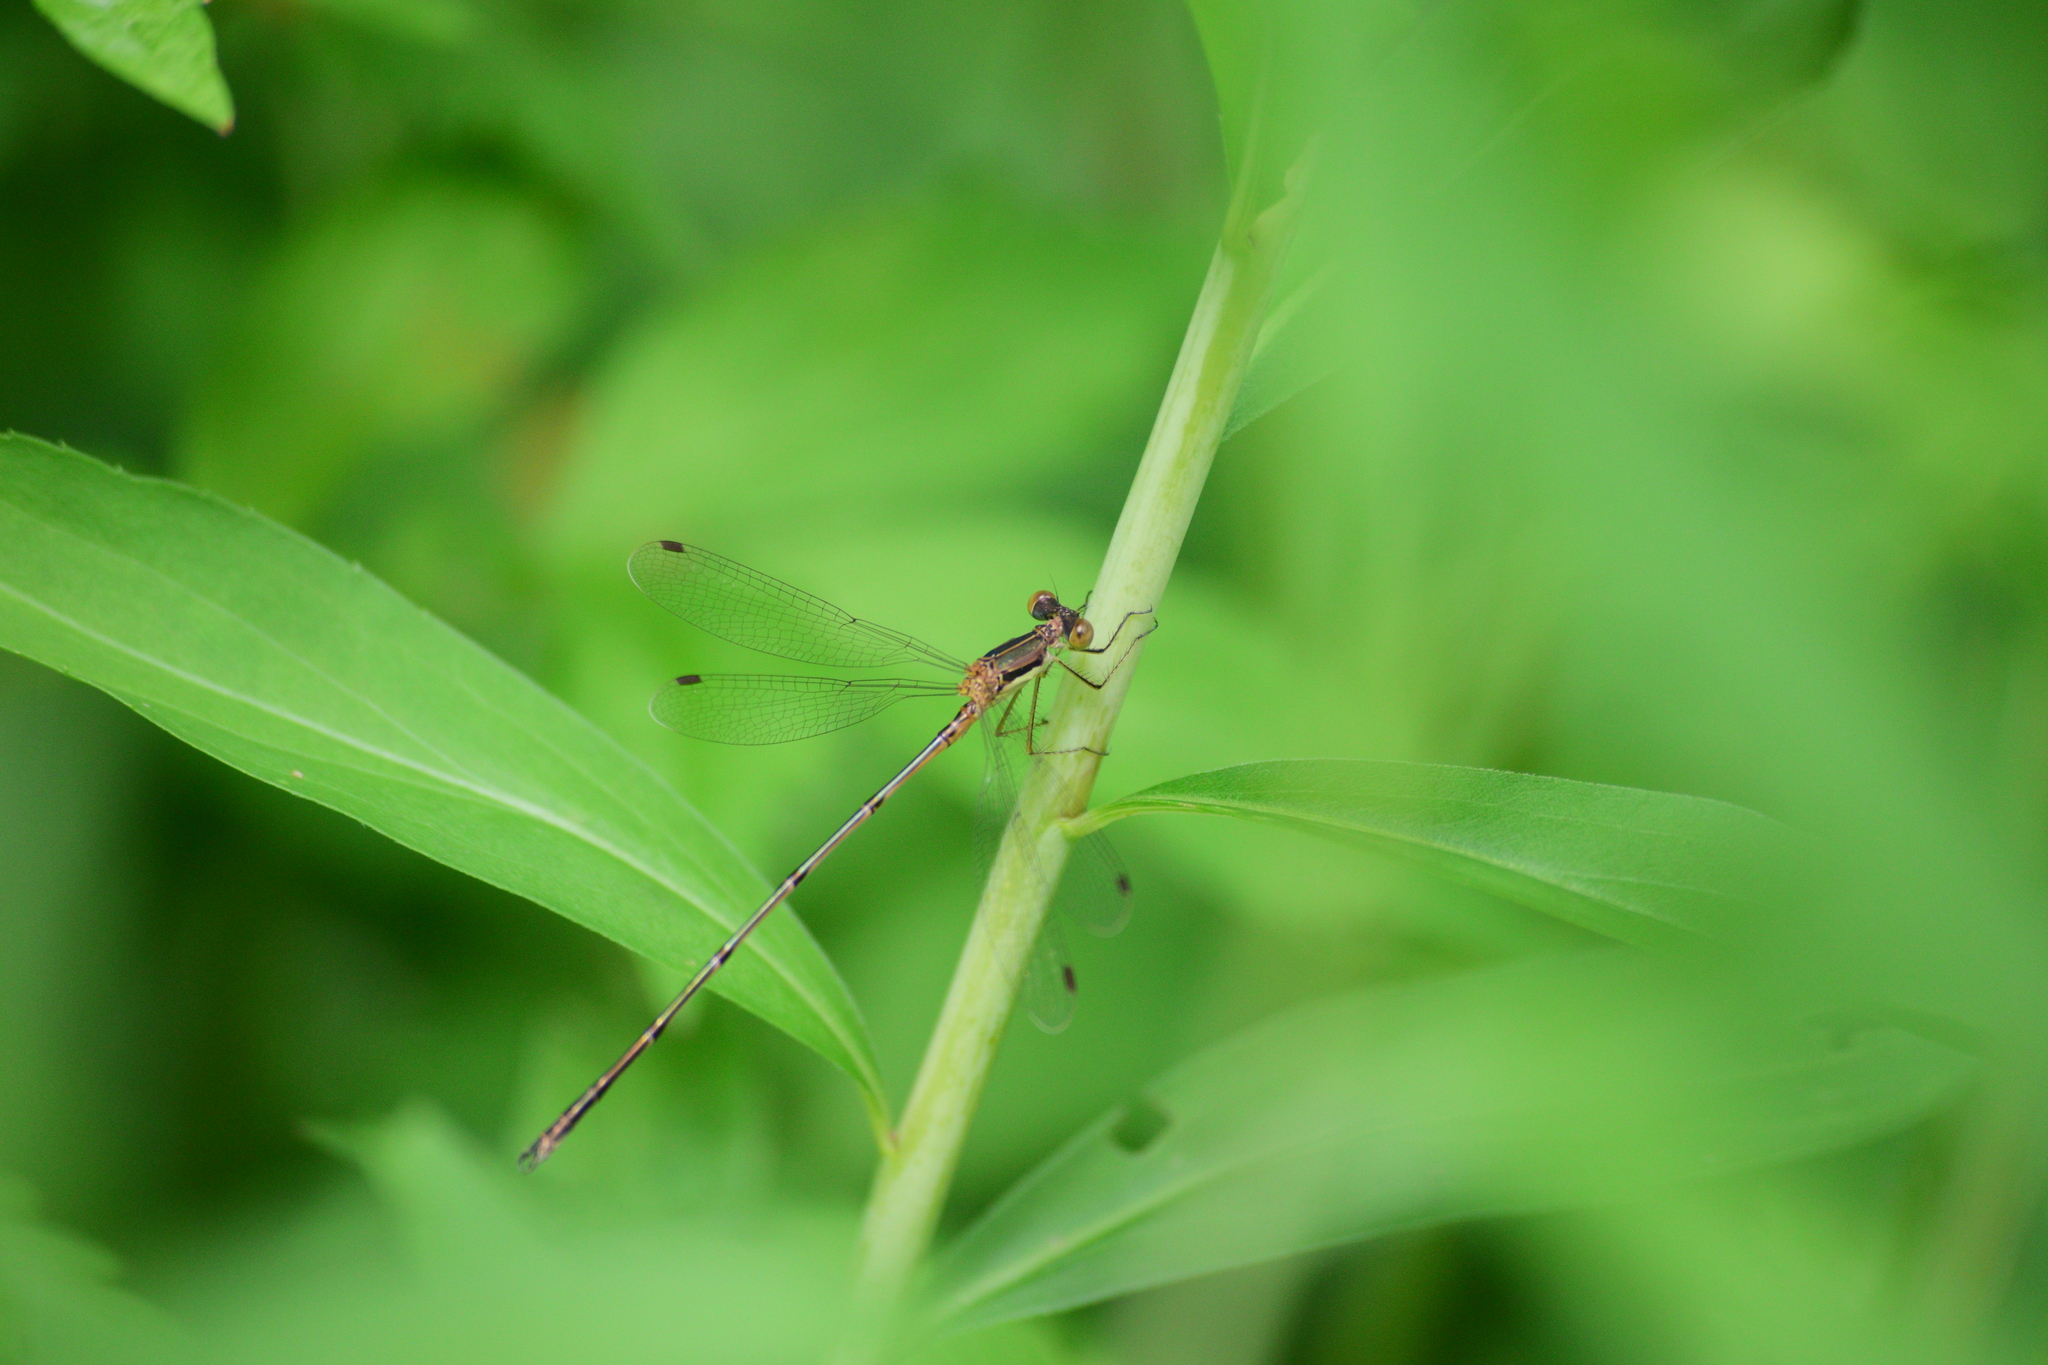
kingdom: Animalia
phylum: Arthropoda
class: Insecta
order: Odonata
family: Lestidae
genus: Lestes
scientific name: Lestes rectangularis
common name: Slender spreadwing
